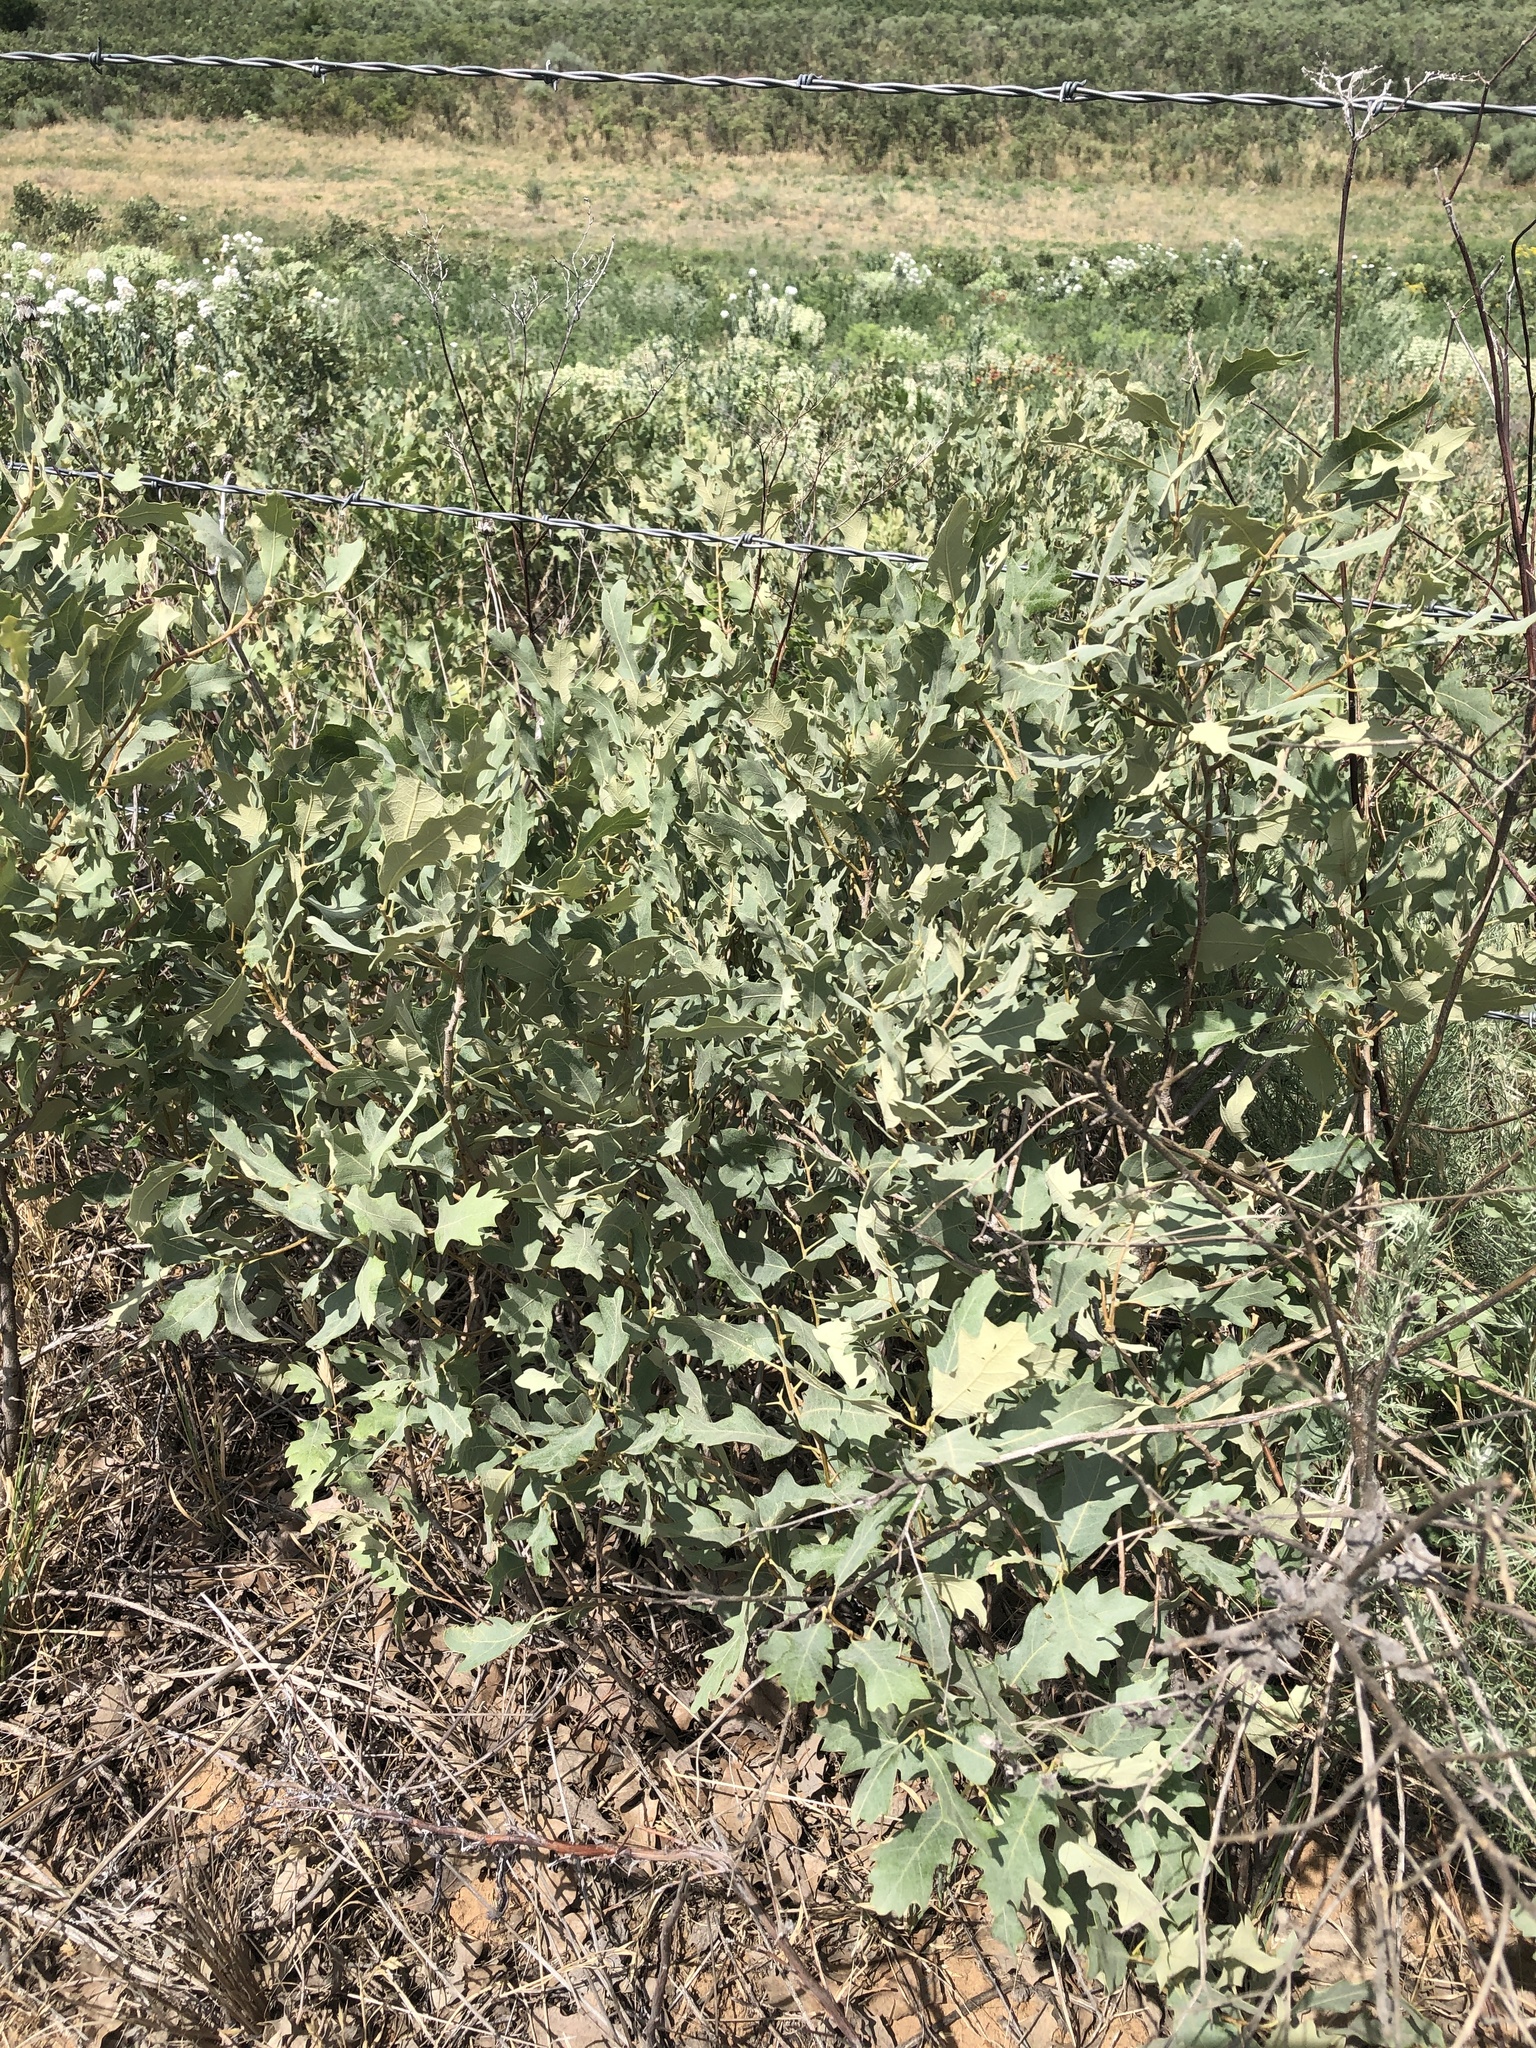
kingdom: Plantae
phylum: Tracheophyta
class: Magnoliopsida
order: Fagales
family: Fagaceae
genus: Quercus
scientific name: Quercus havardii
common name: Shinnery oak
